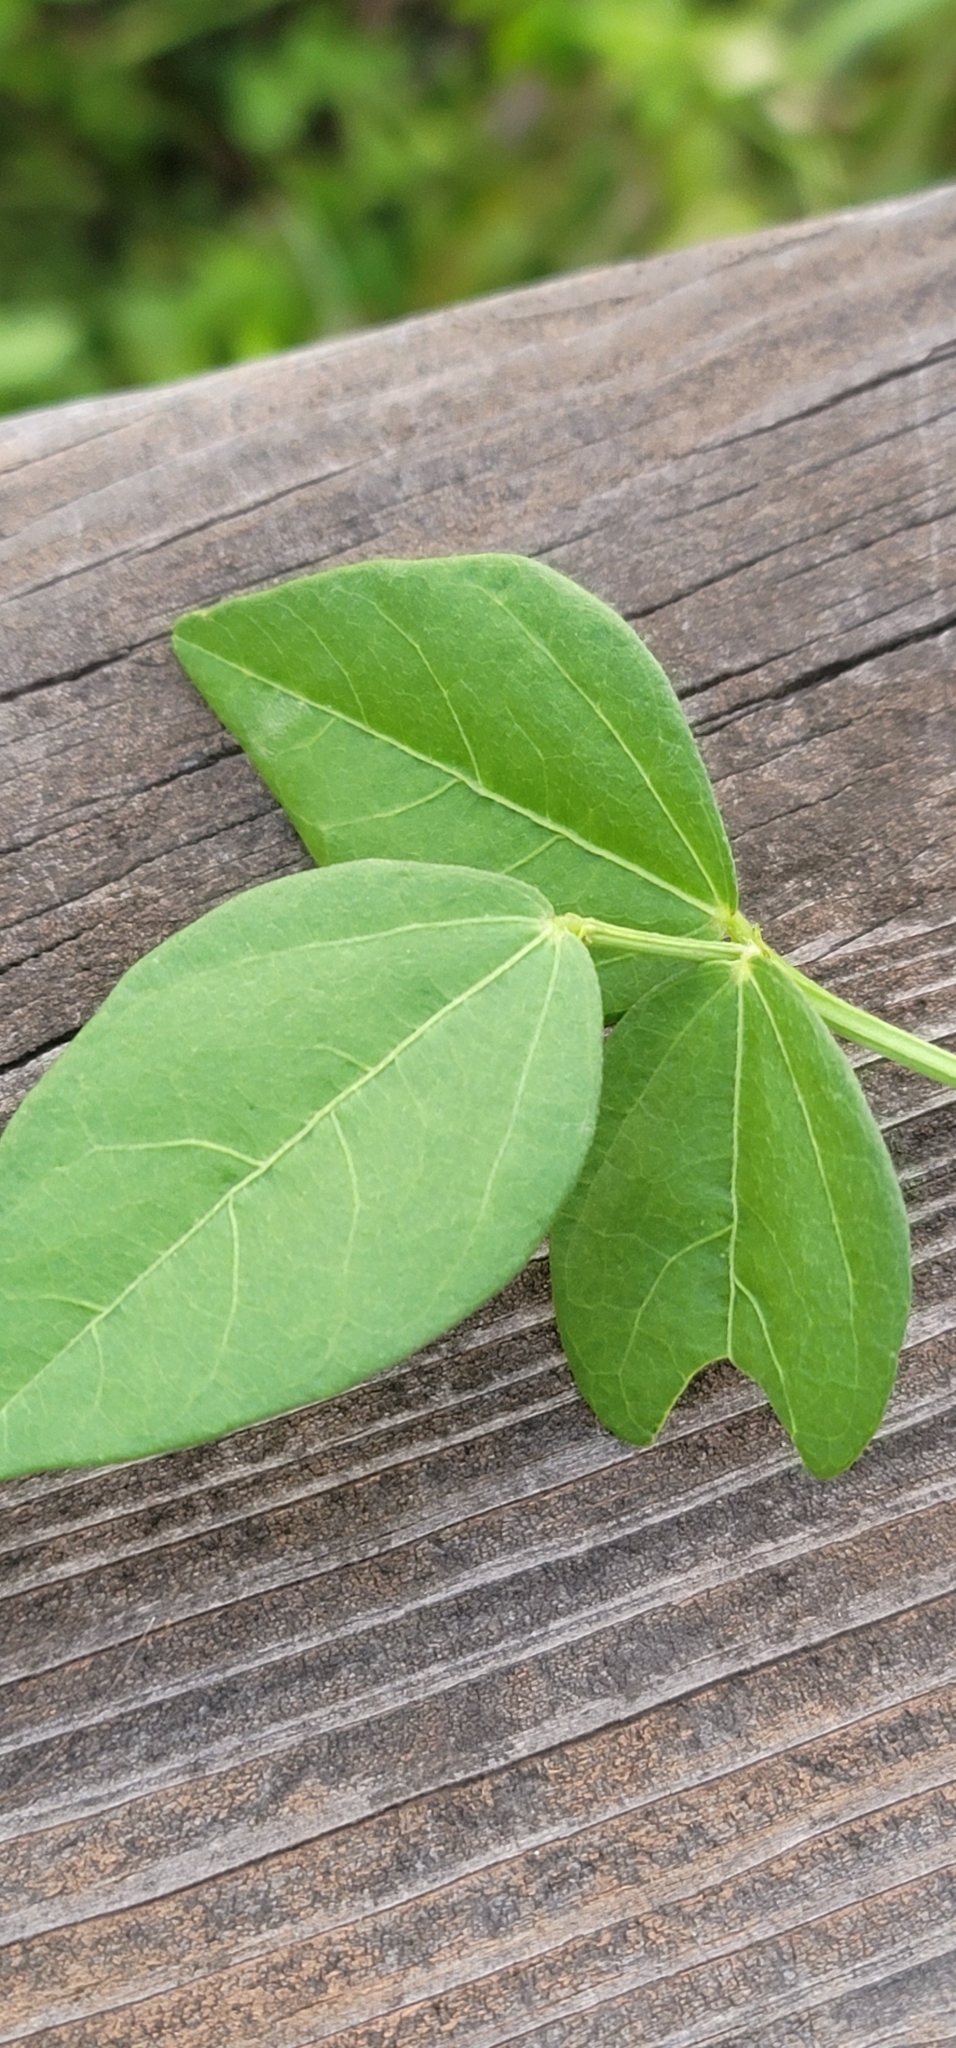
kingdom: Plantae
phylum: Tracheophyta
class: Magnoliopsida
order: Fabales
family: Fabaceae
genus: Vigna
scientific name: Vigna luteola
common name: Hairypod cowpea
